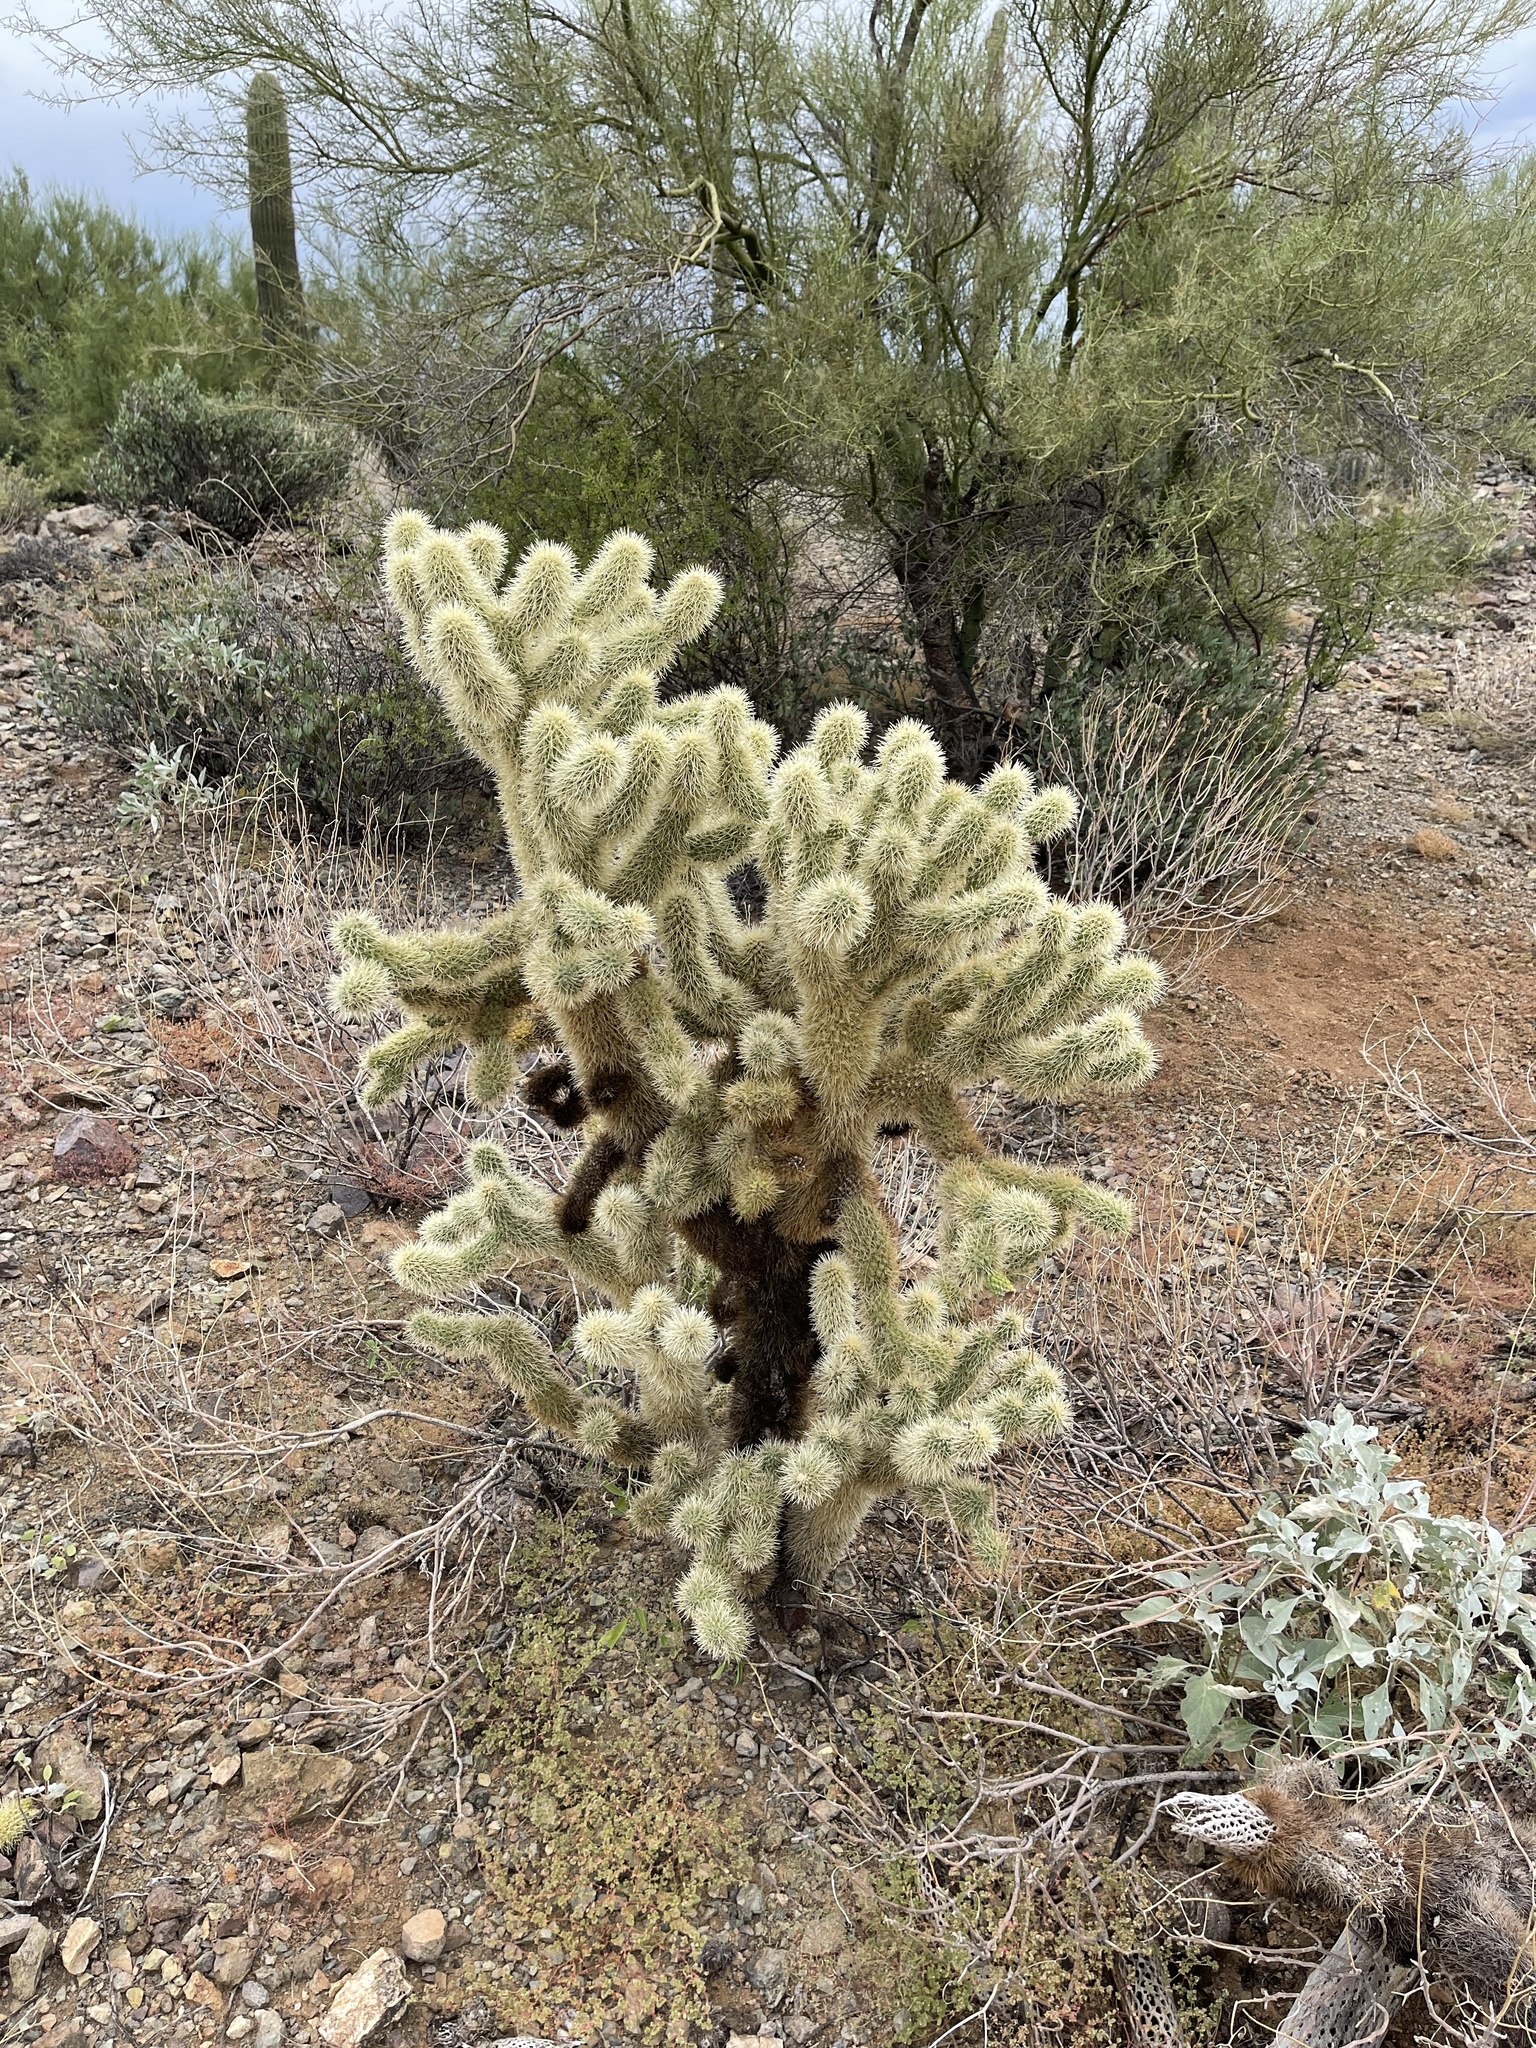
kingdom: Plantae
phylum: Tracheophyta
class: Magnoliopsida
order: Caryophyllales
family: Cactaceae
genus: Cylindropuntia
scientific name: Cylindropuntia fosbergii
